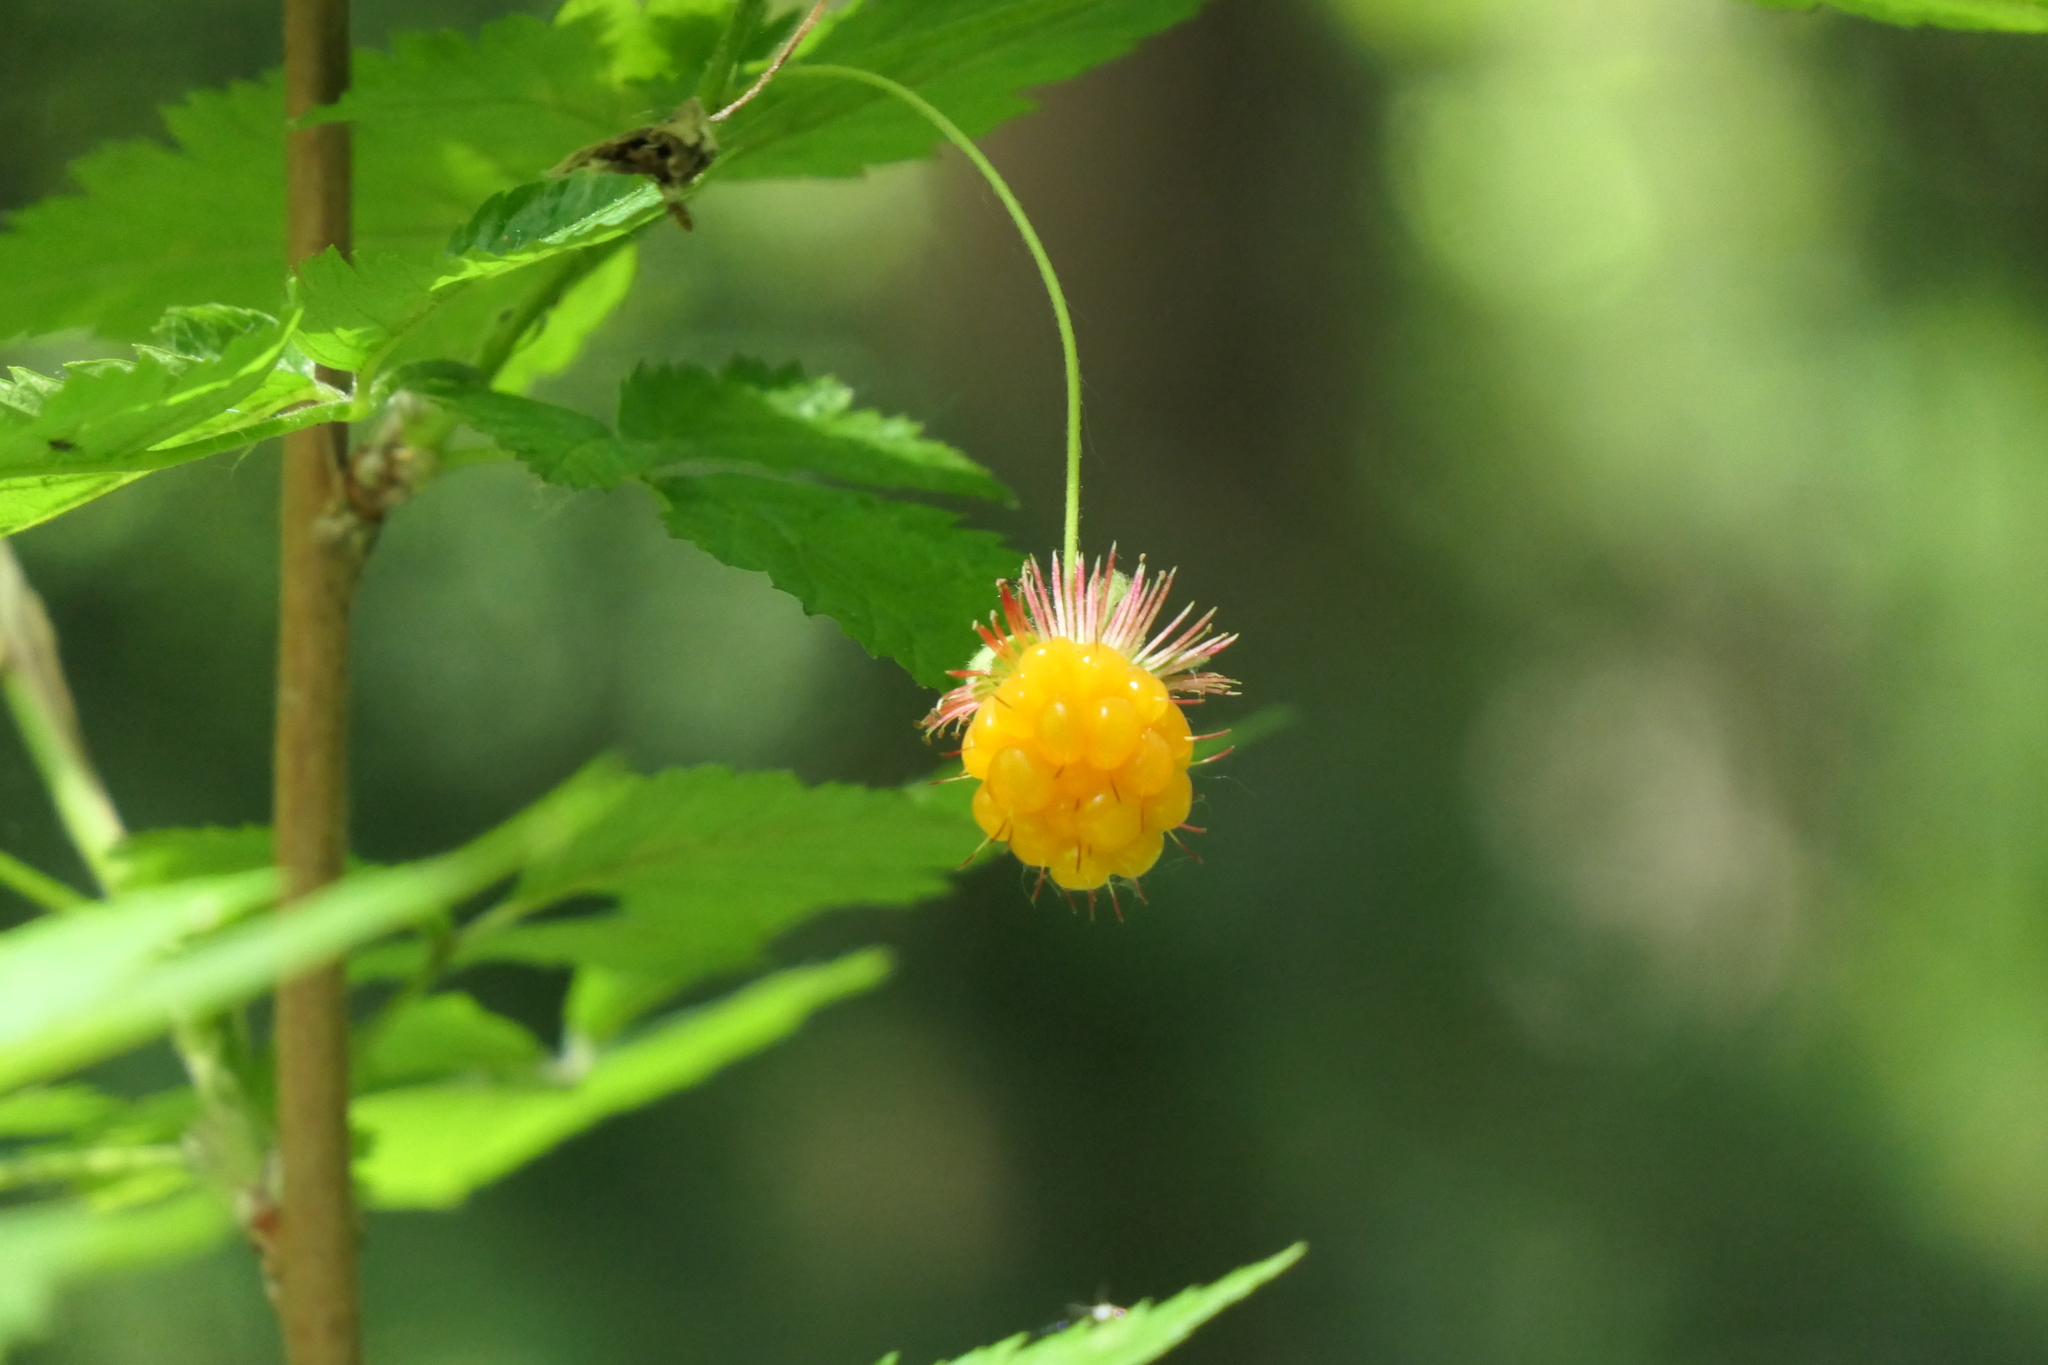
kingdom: Plantae
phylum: Tracheophyta
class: Magnoliopsida
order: Rosales
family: Rosaceae
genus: Rubus
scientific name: Rubus spectabilis
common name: Salmonberry
